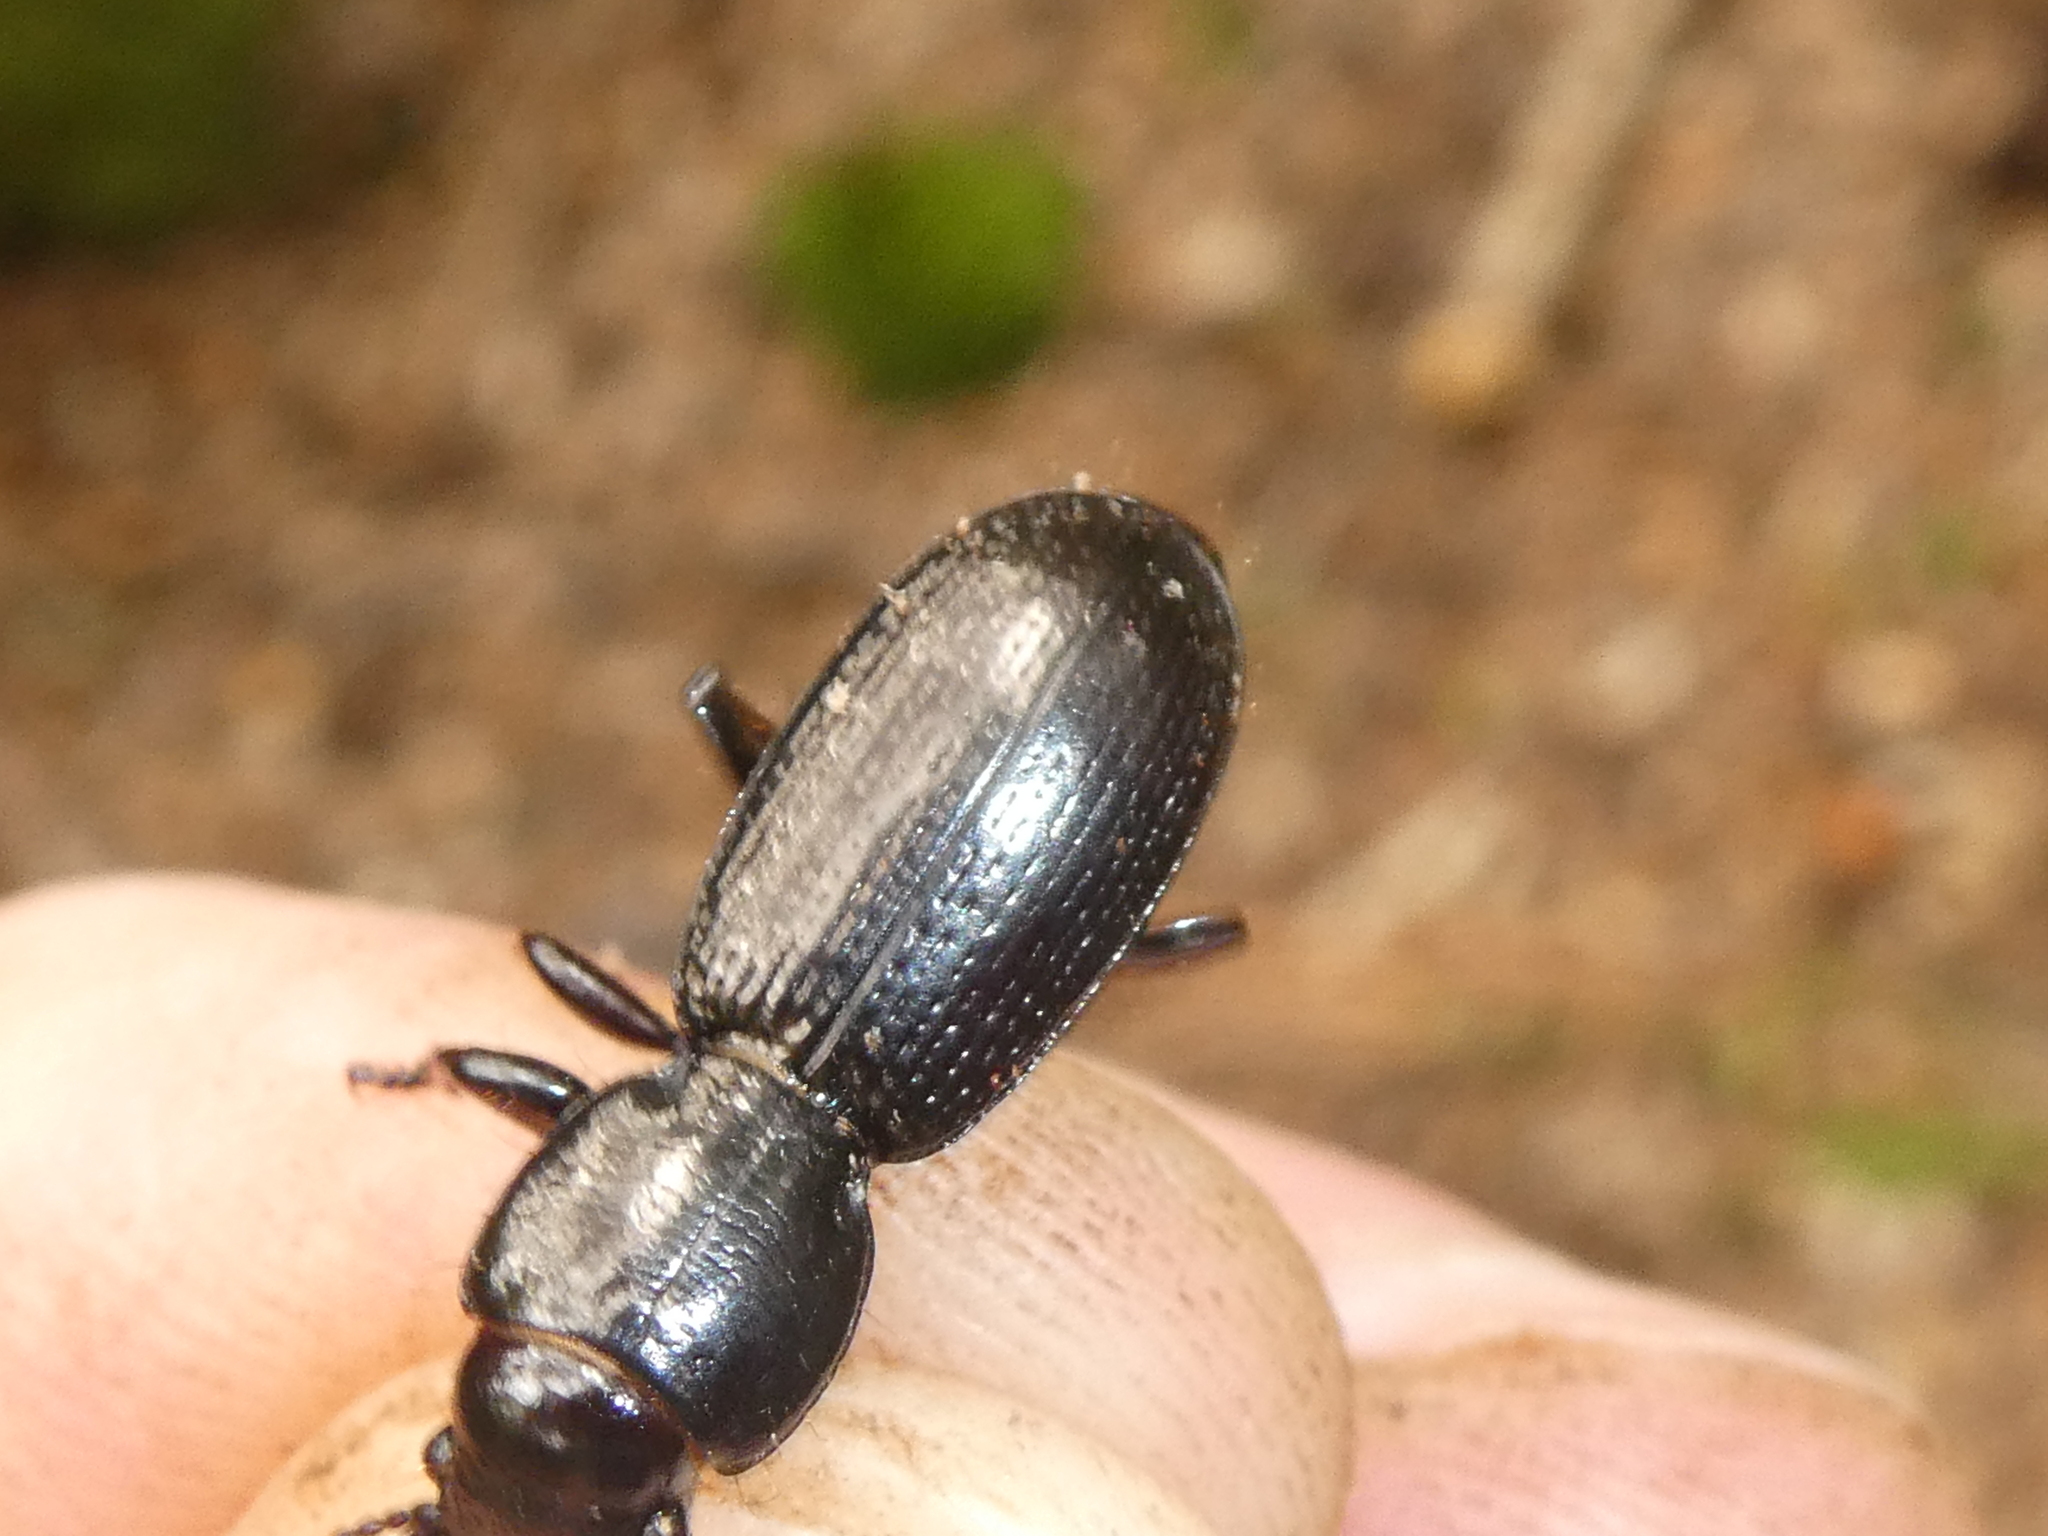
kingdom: Animalia
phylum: Arthropoda
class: Insecta
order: Coleoptera
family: Carabidae
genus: Mecodema
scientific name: Mecodema strictum
